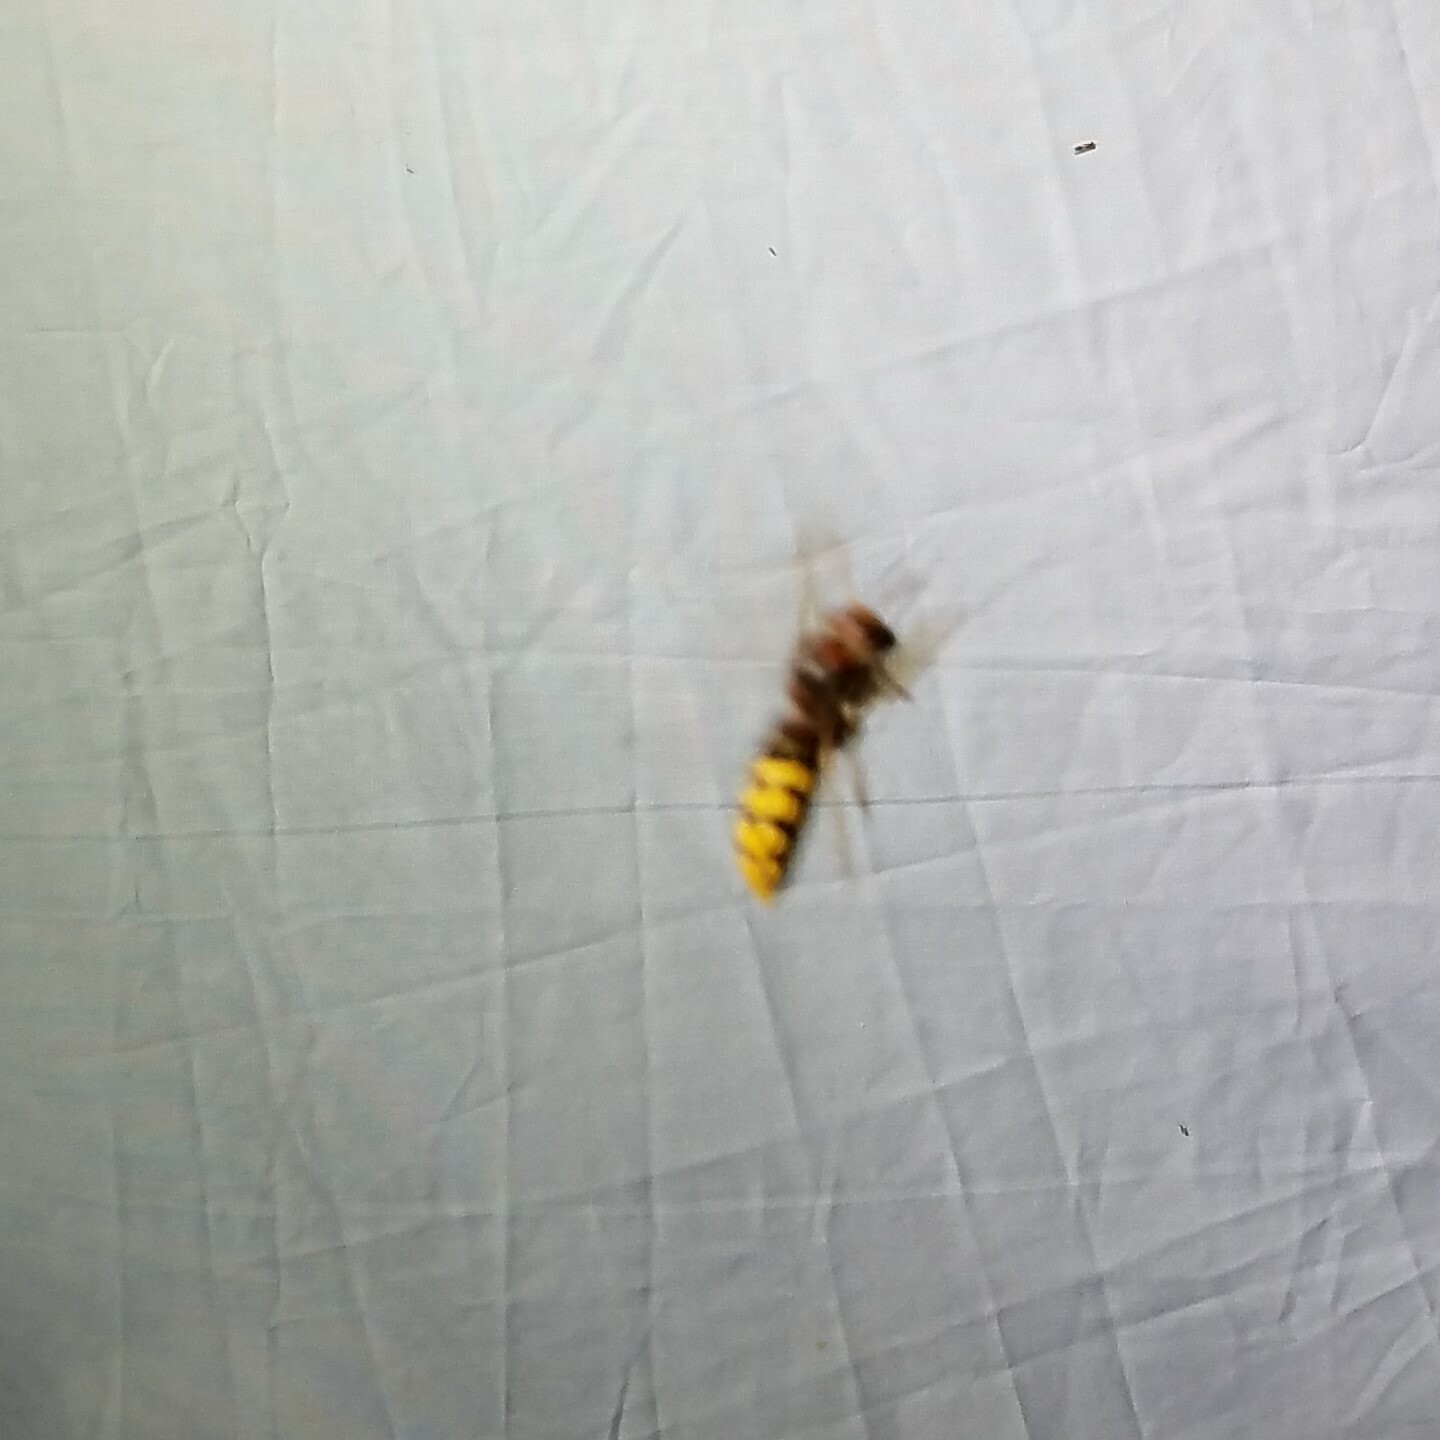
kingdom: Animalia
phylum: Arthropoda
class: Insecta
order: Hymenoptera
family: Vespidae
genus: Vespa
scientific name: Vespa crabro
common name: Hornet
